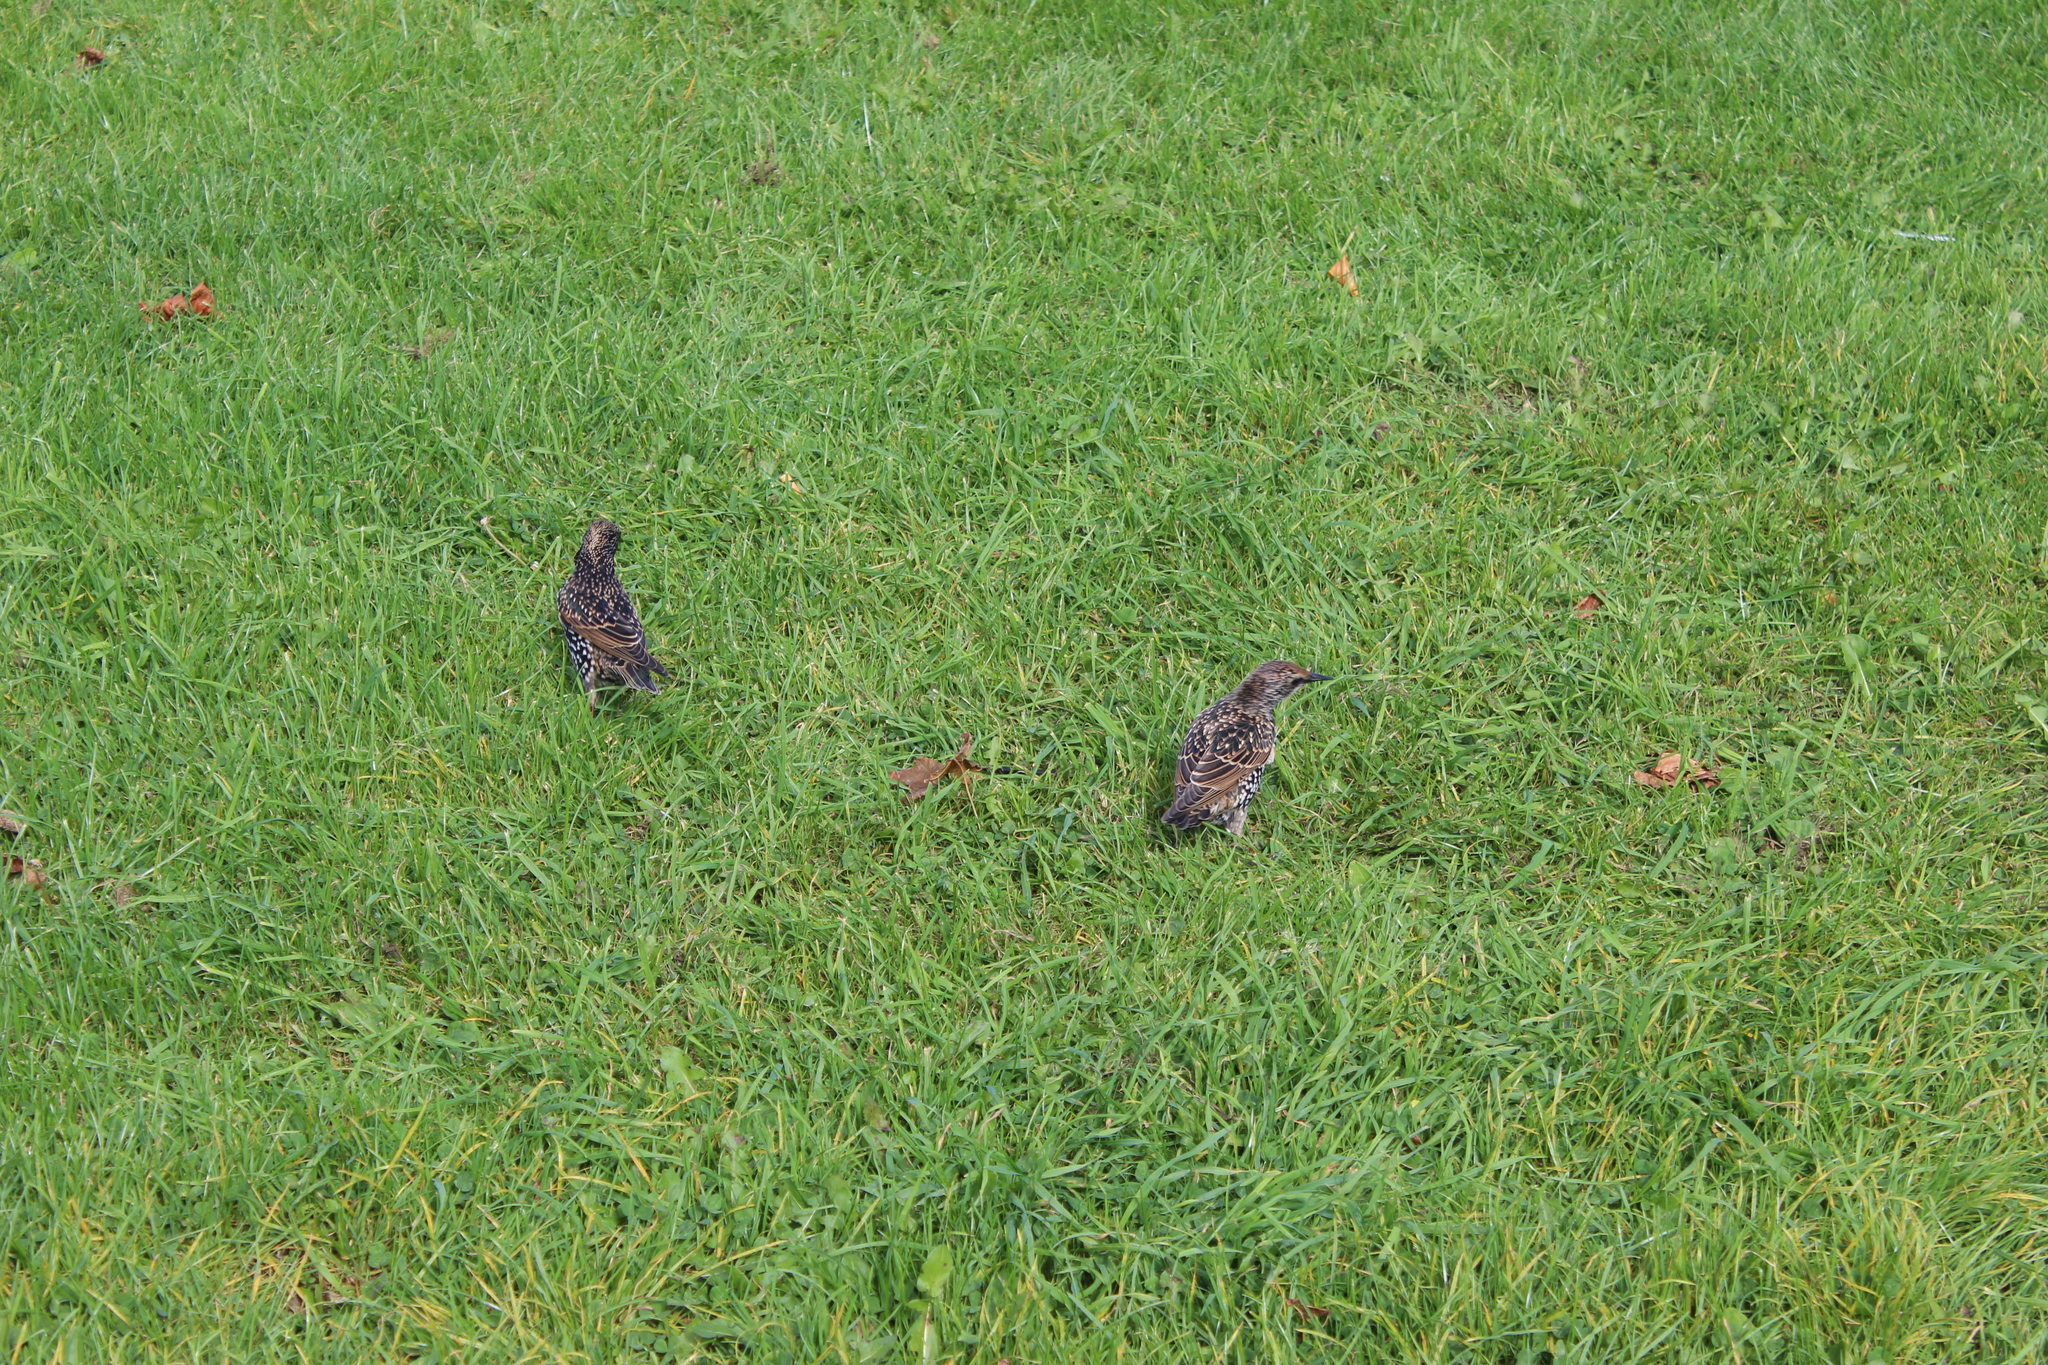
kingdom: Animalia
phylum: Chordata
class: Aves
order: Passeriformes
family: Sturnidae
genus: Sturnus
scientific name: Sturnus vulgaris
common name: Common starling
